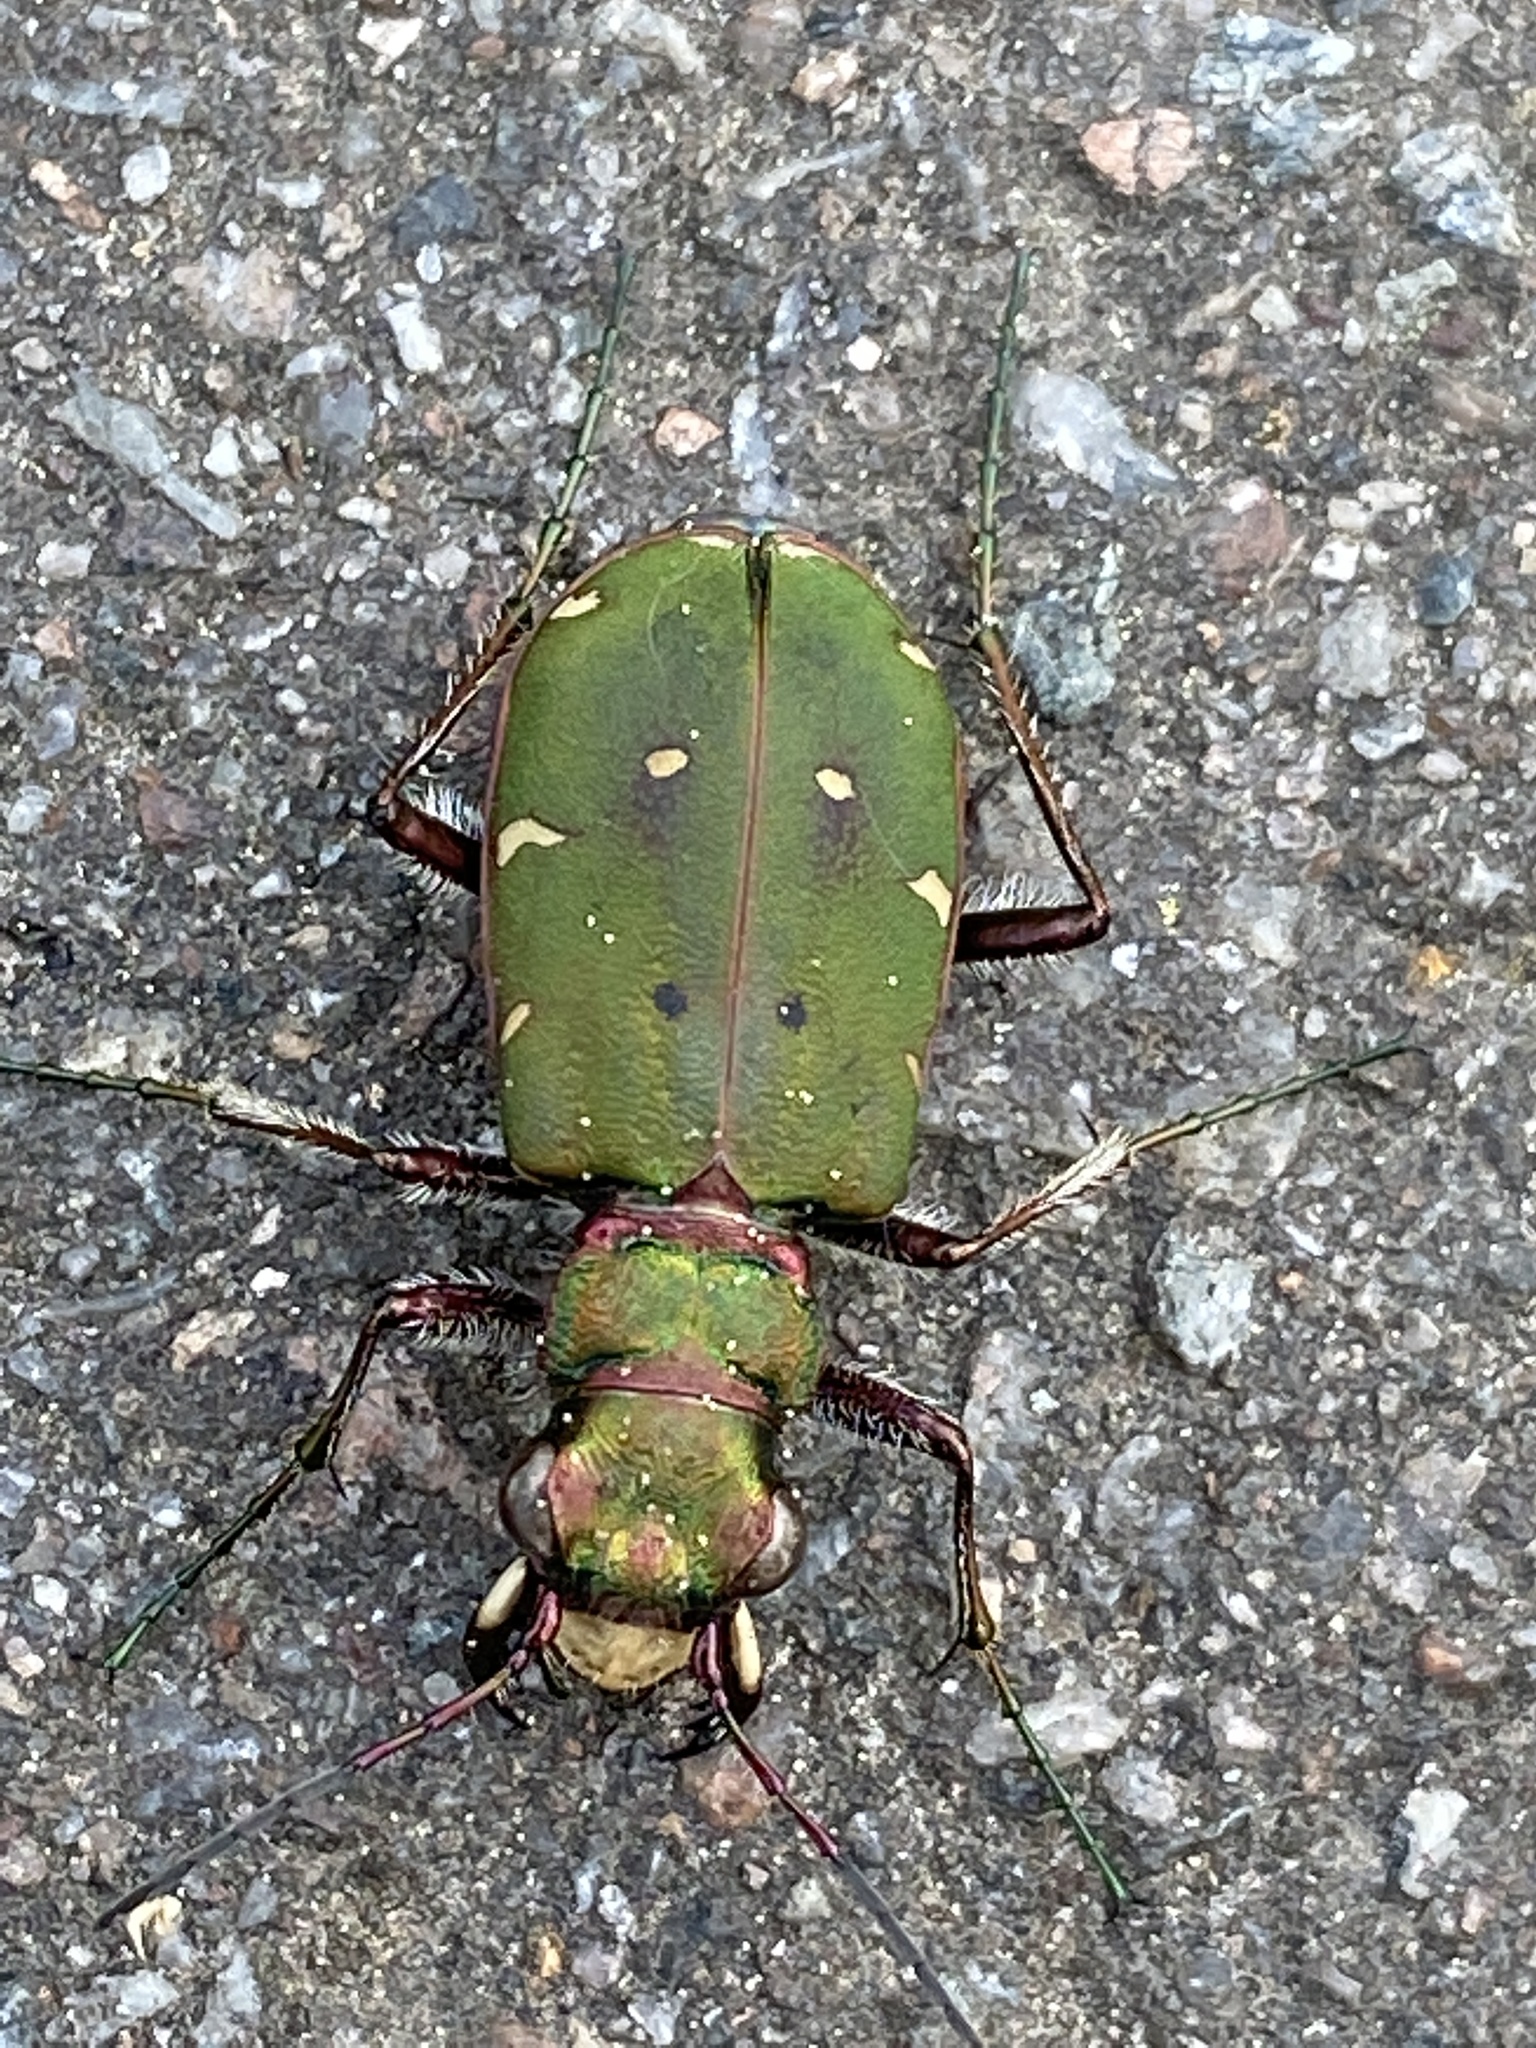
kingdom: Animalia
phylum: Arthropoda
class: Insecta
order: Coleoptera
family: Carabidae
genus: Cicindela
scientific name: Cicindela campestris
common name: Common tiger beetle
